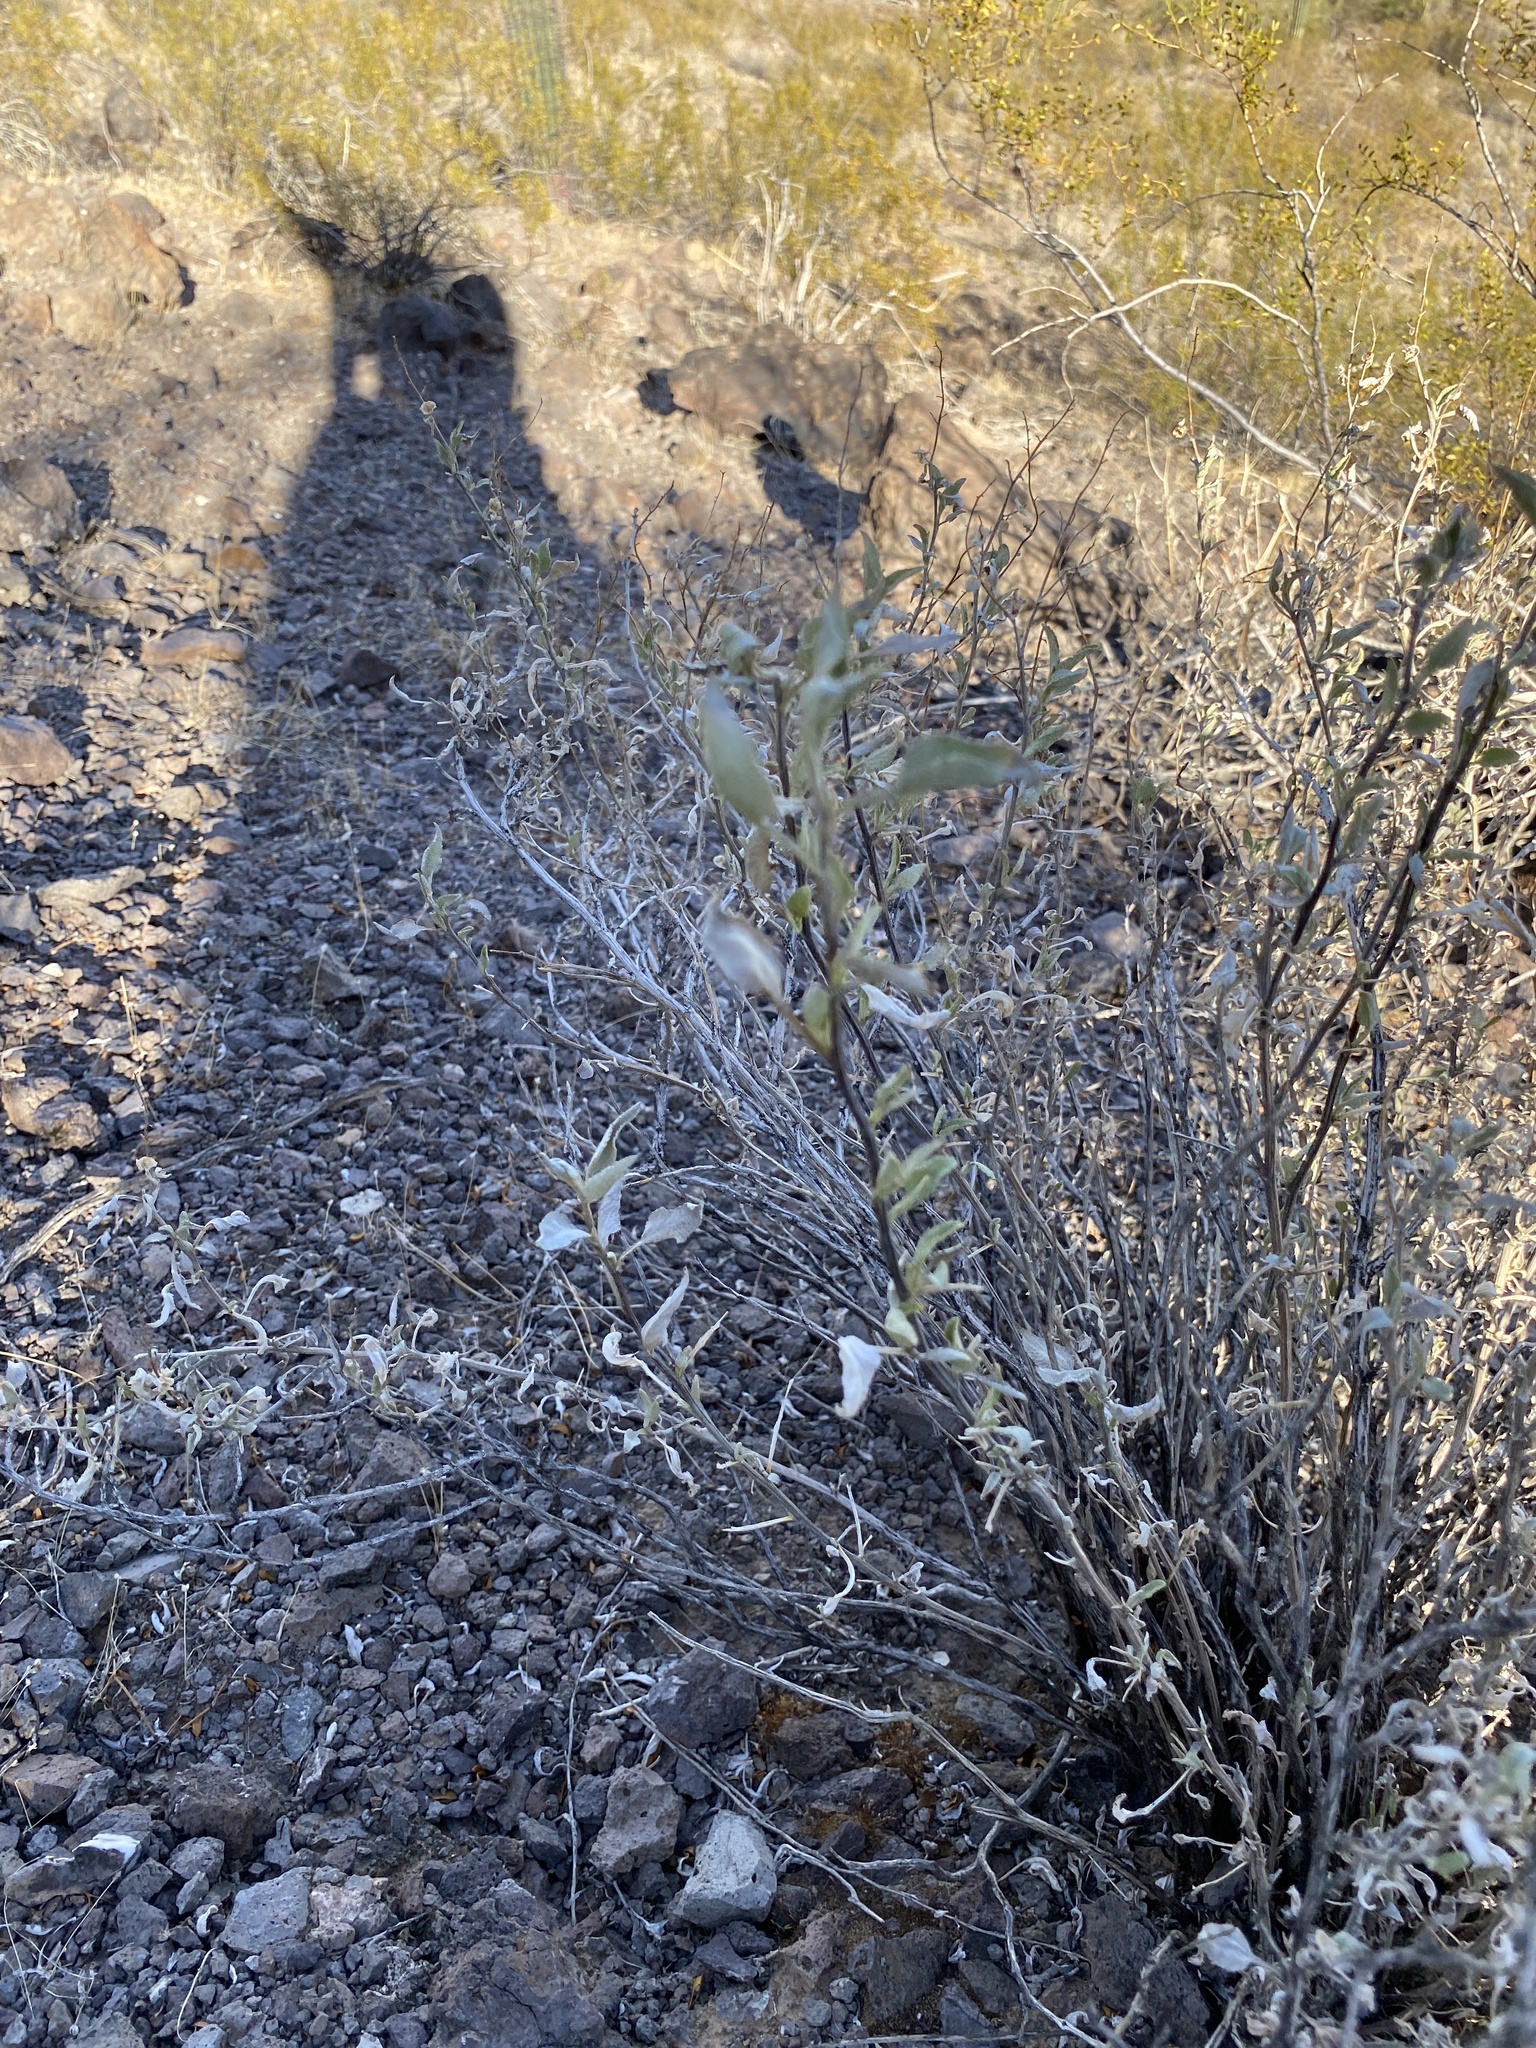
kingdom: Plantae
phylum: Tracheophyta
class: Magnoliopsida
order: Asterales
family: Asteraceae
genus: Ambrosia
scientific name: Ambrosia deltoidea
